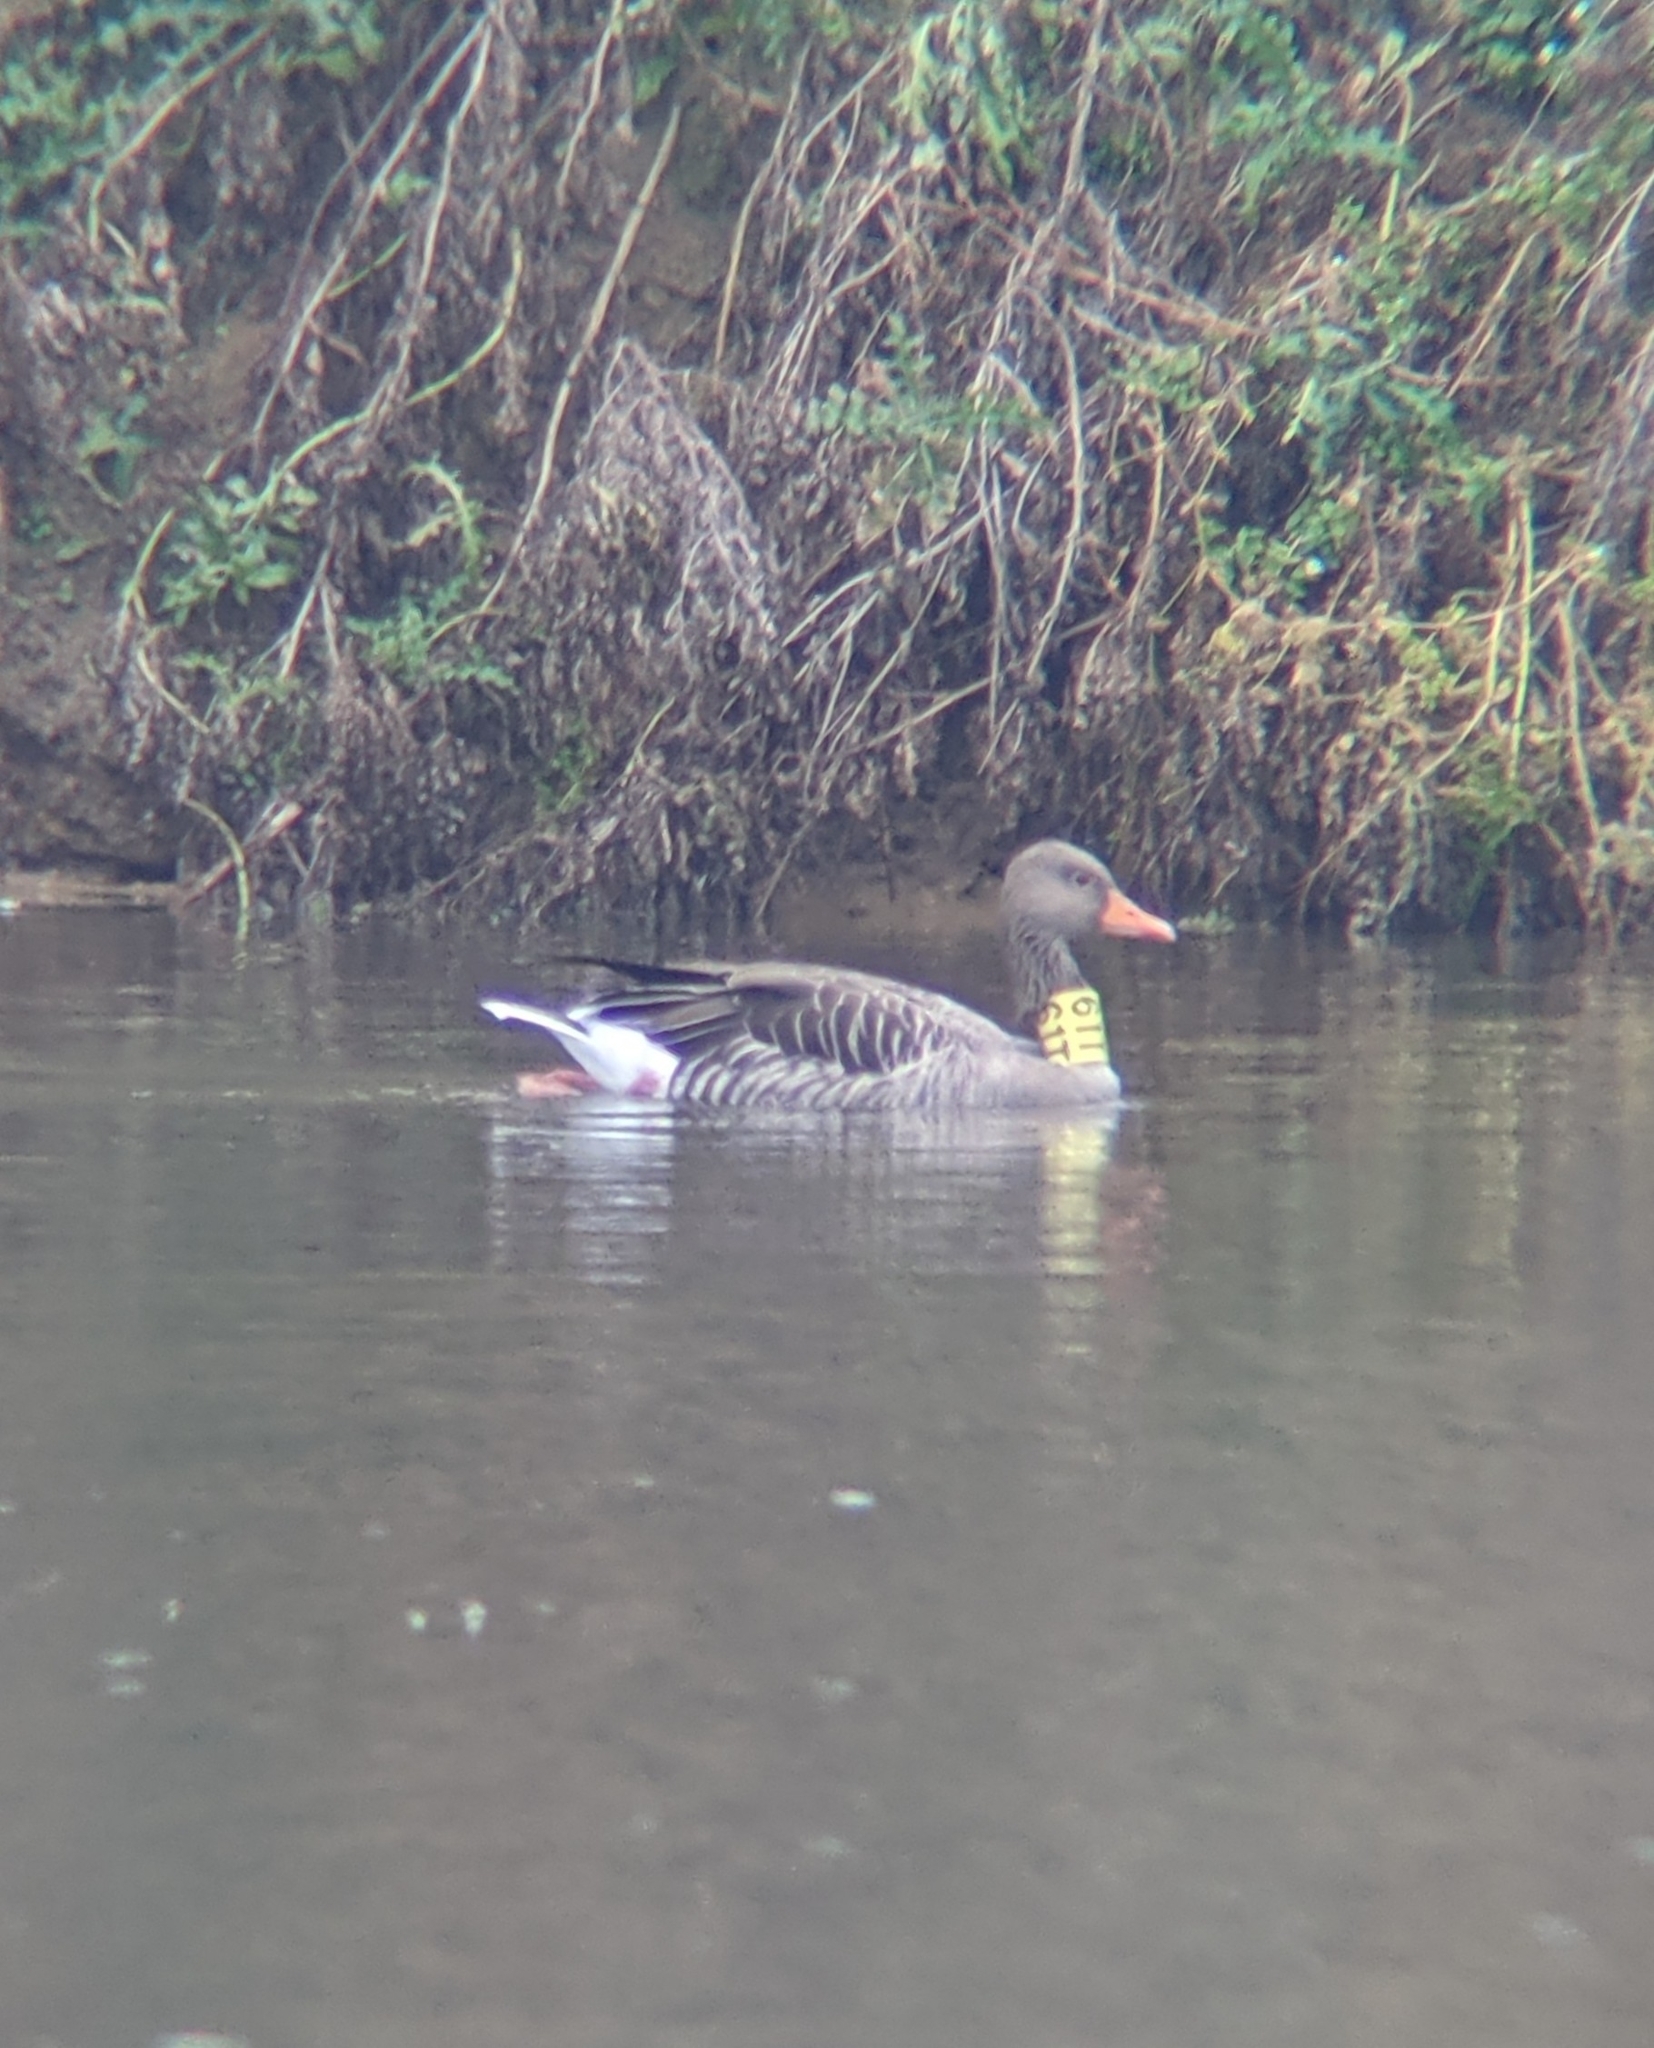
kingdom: Animalia
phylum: Chordata
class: Aves
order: Anseriformes
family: Anatidae
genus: Anser
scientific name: Anser anser
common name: Greylag goose
